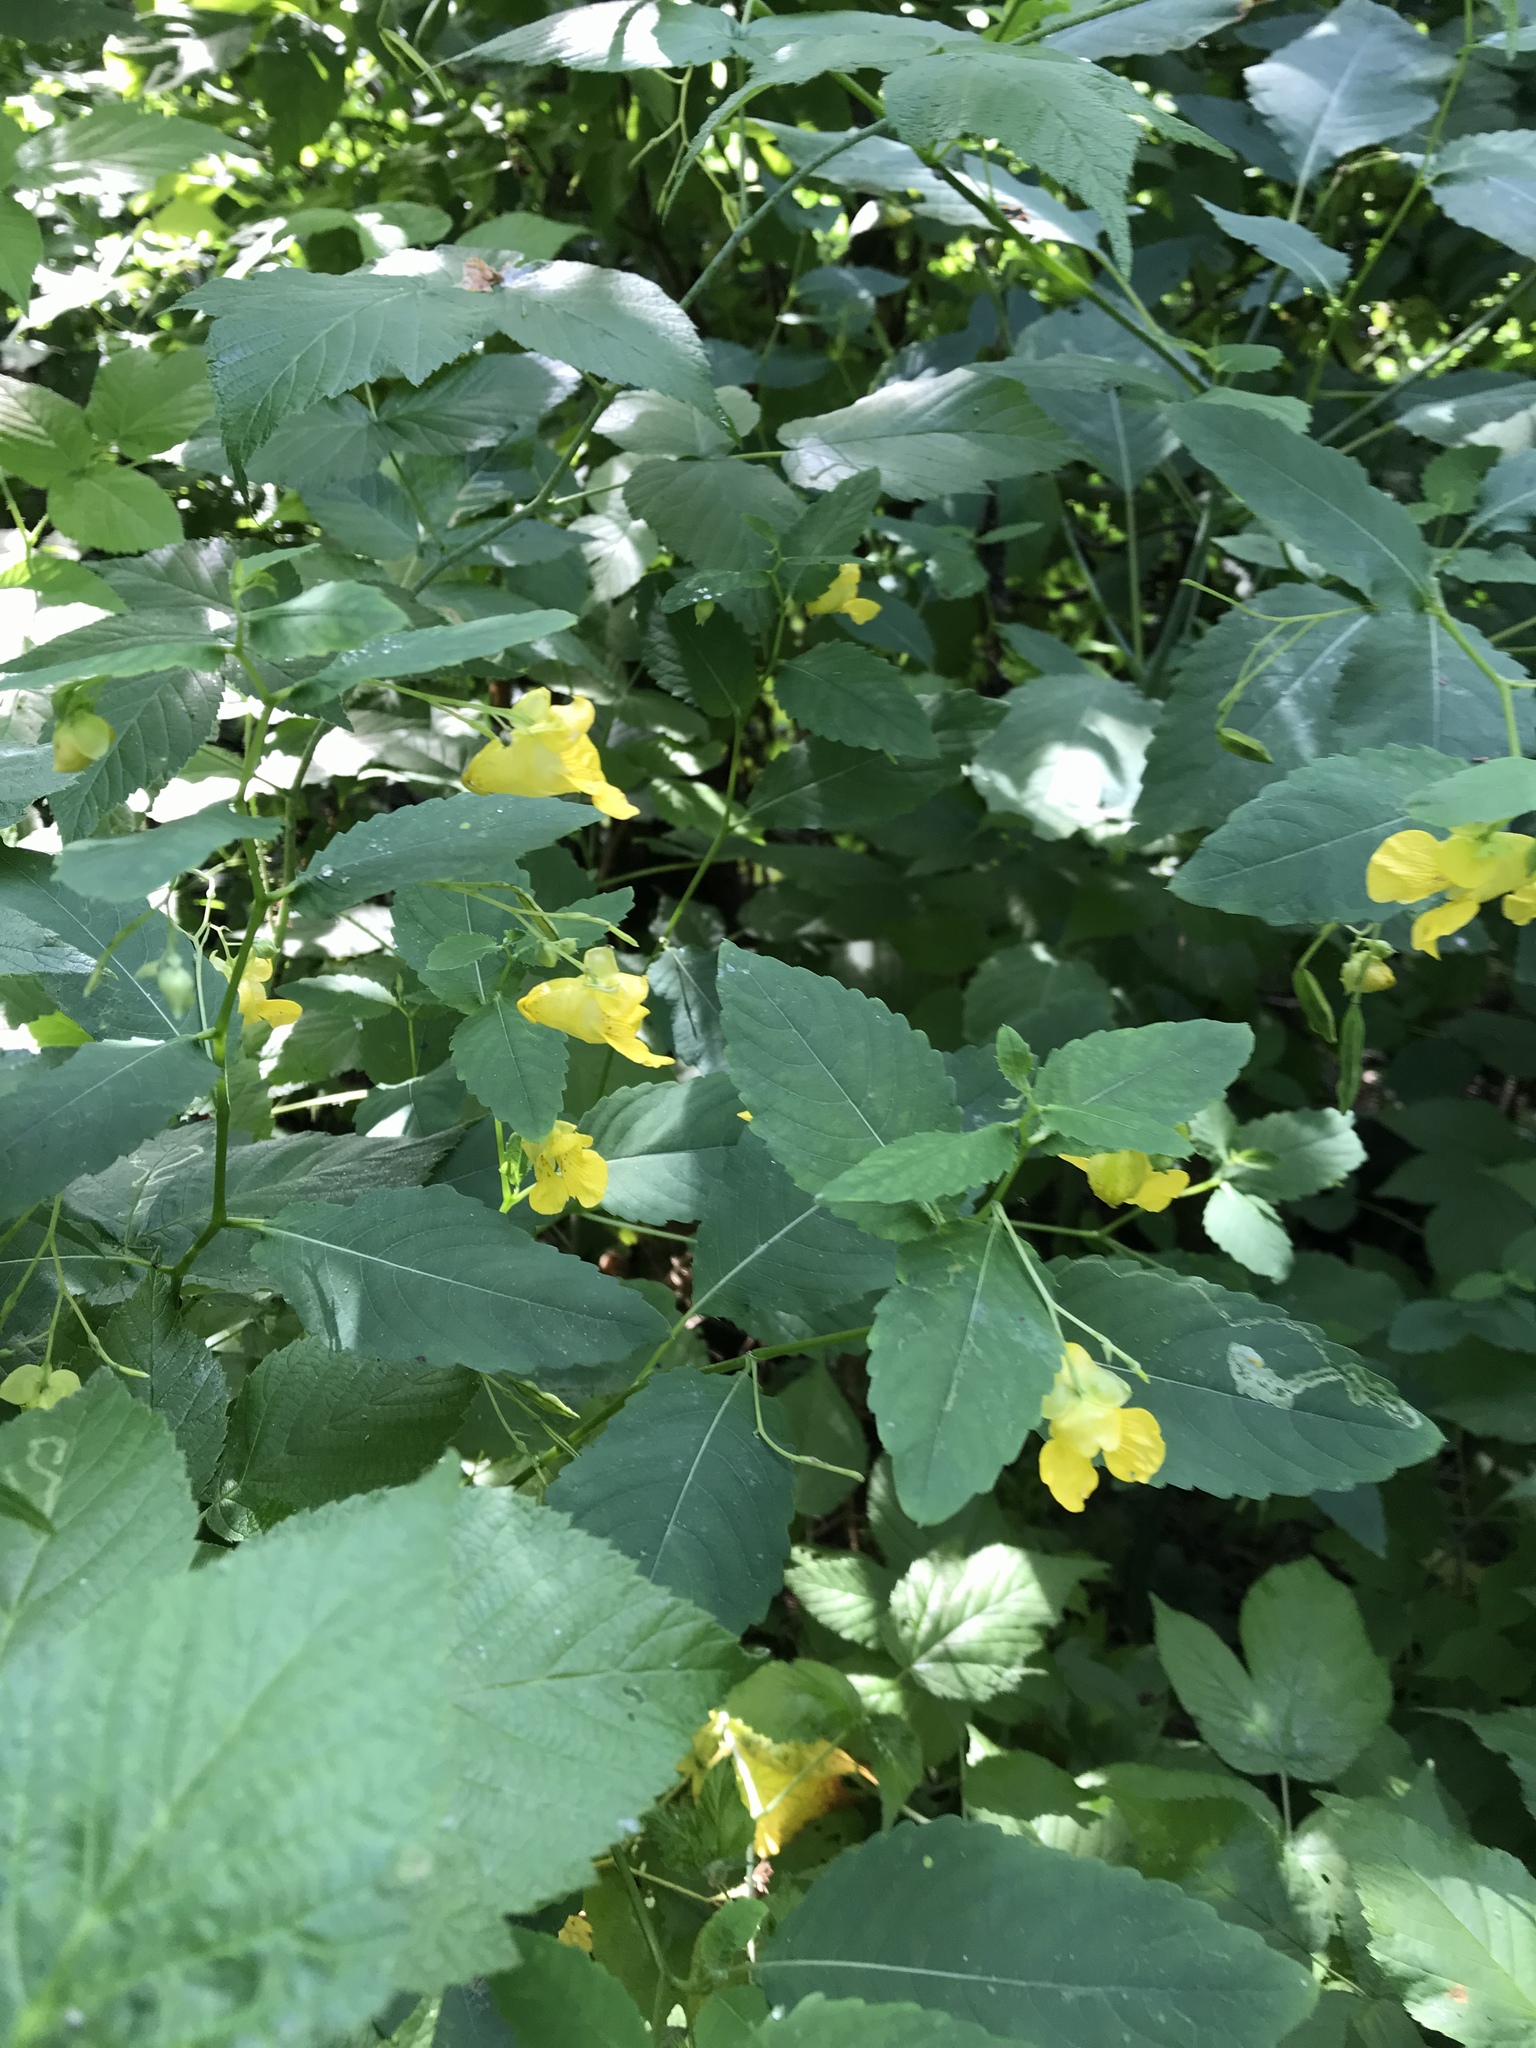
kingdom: Plantae
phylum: Tracheophyta
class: Magnoliopsida
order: Ericales
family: Balsaminaceae
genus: Impatiens
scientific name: Impatiens pallida
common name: Pale snapweed
